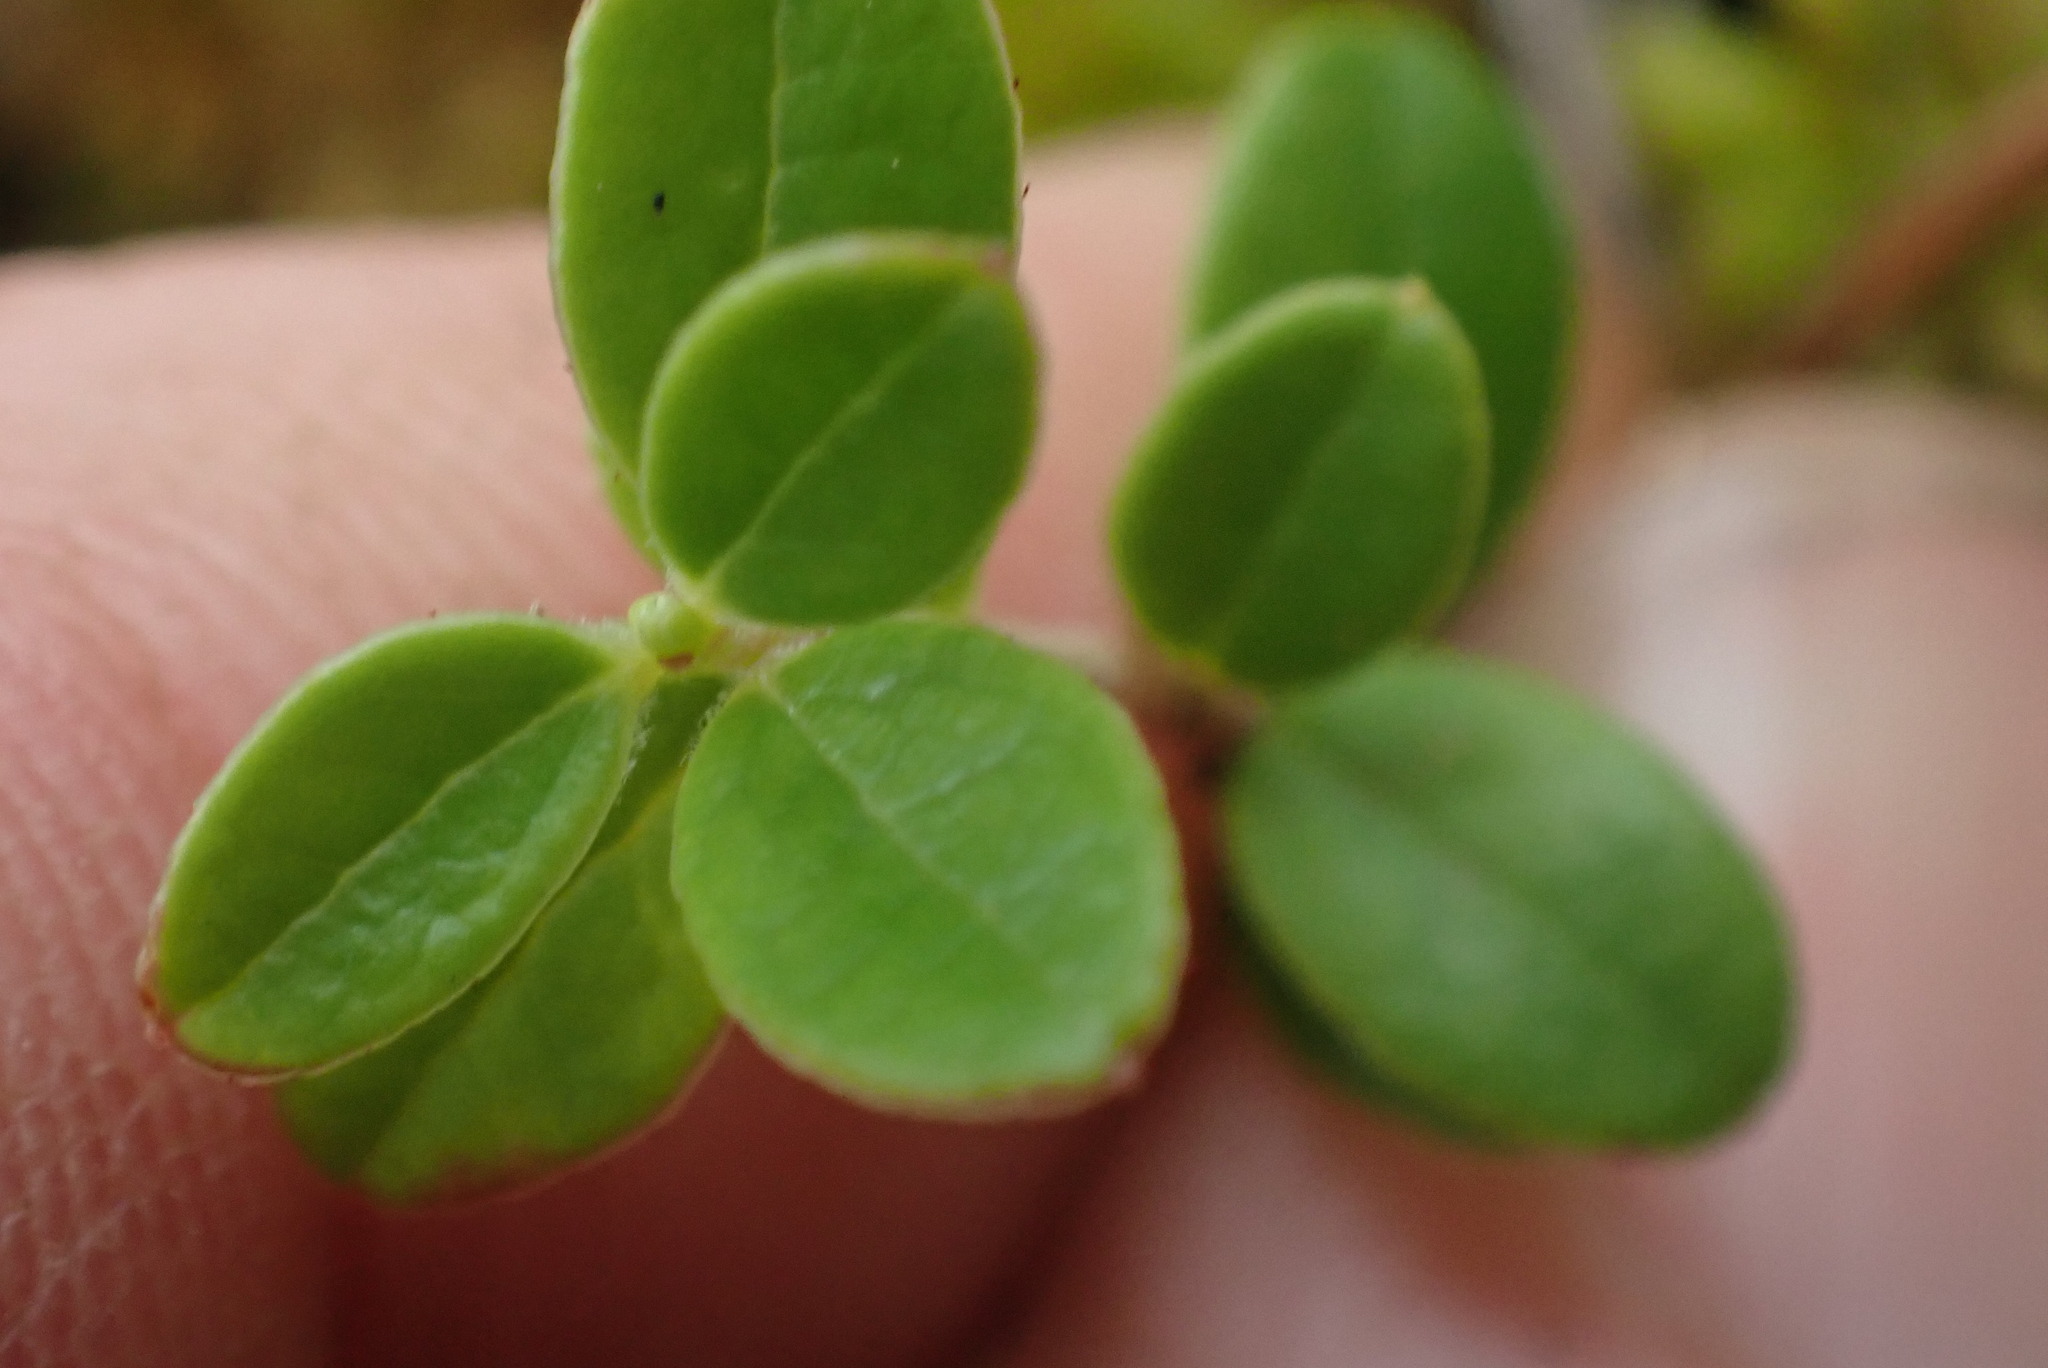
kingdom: Plantae
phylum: Tracheophyta
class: Magnoliopsida
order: Ericales
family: Ericaceae
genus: Vaccinium
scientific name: Vaccinium vitis-idaea
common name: Cowberry
